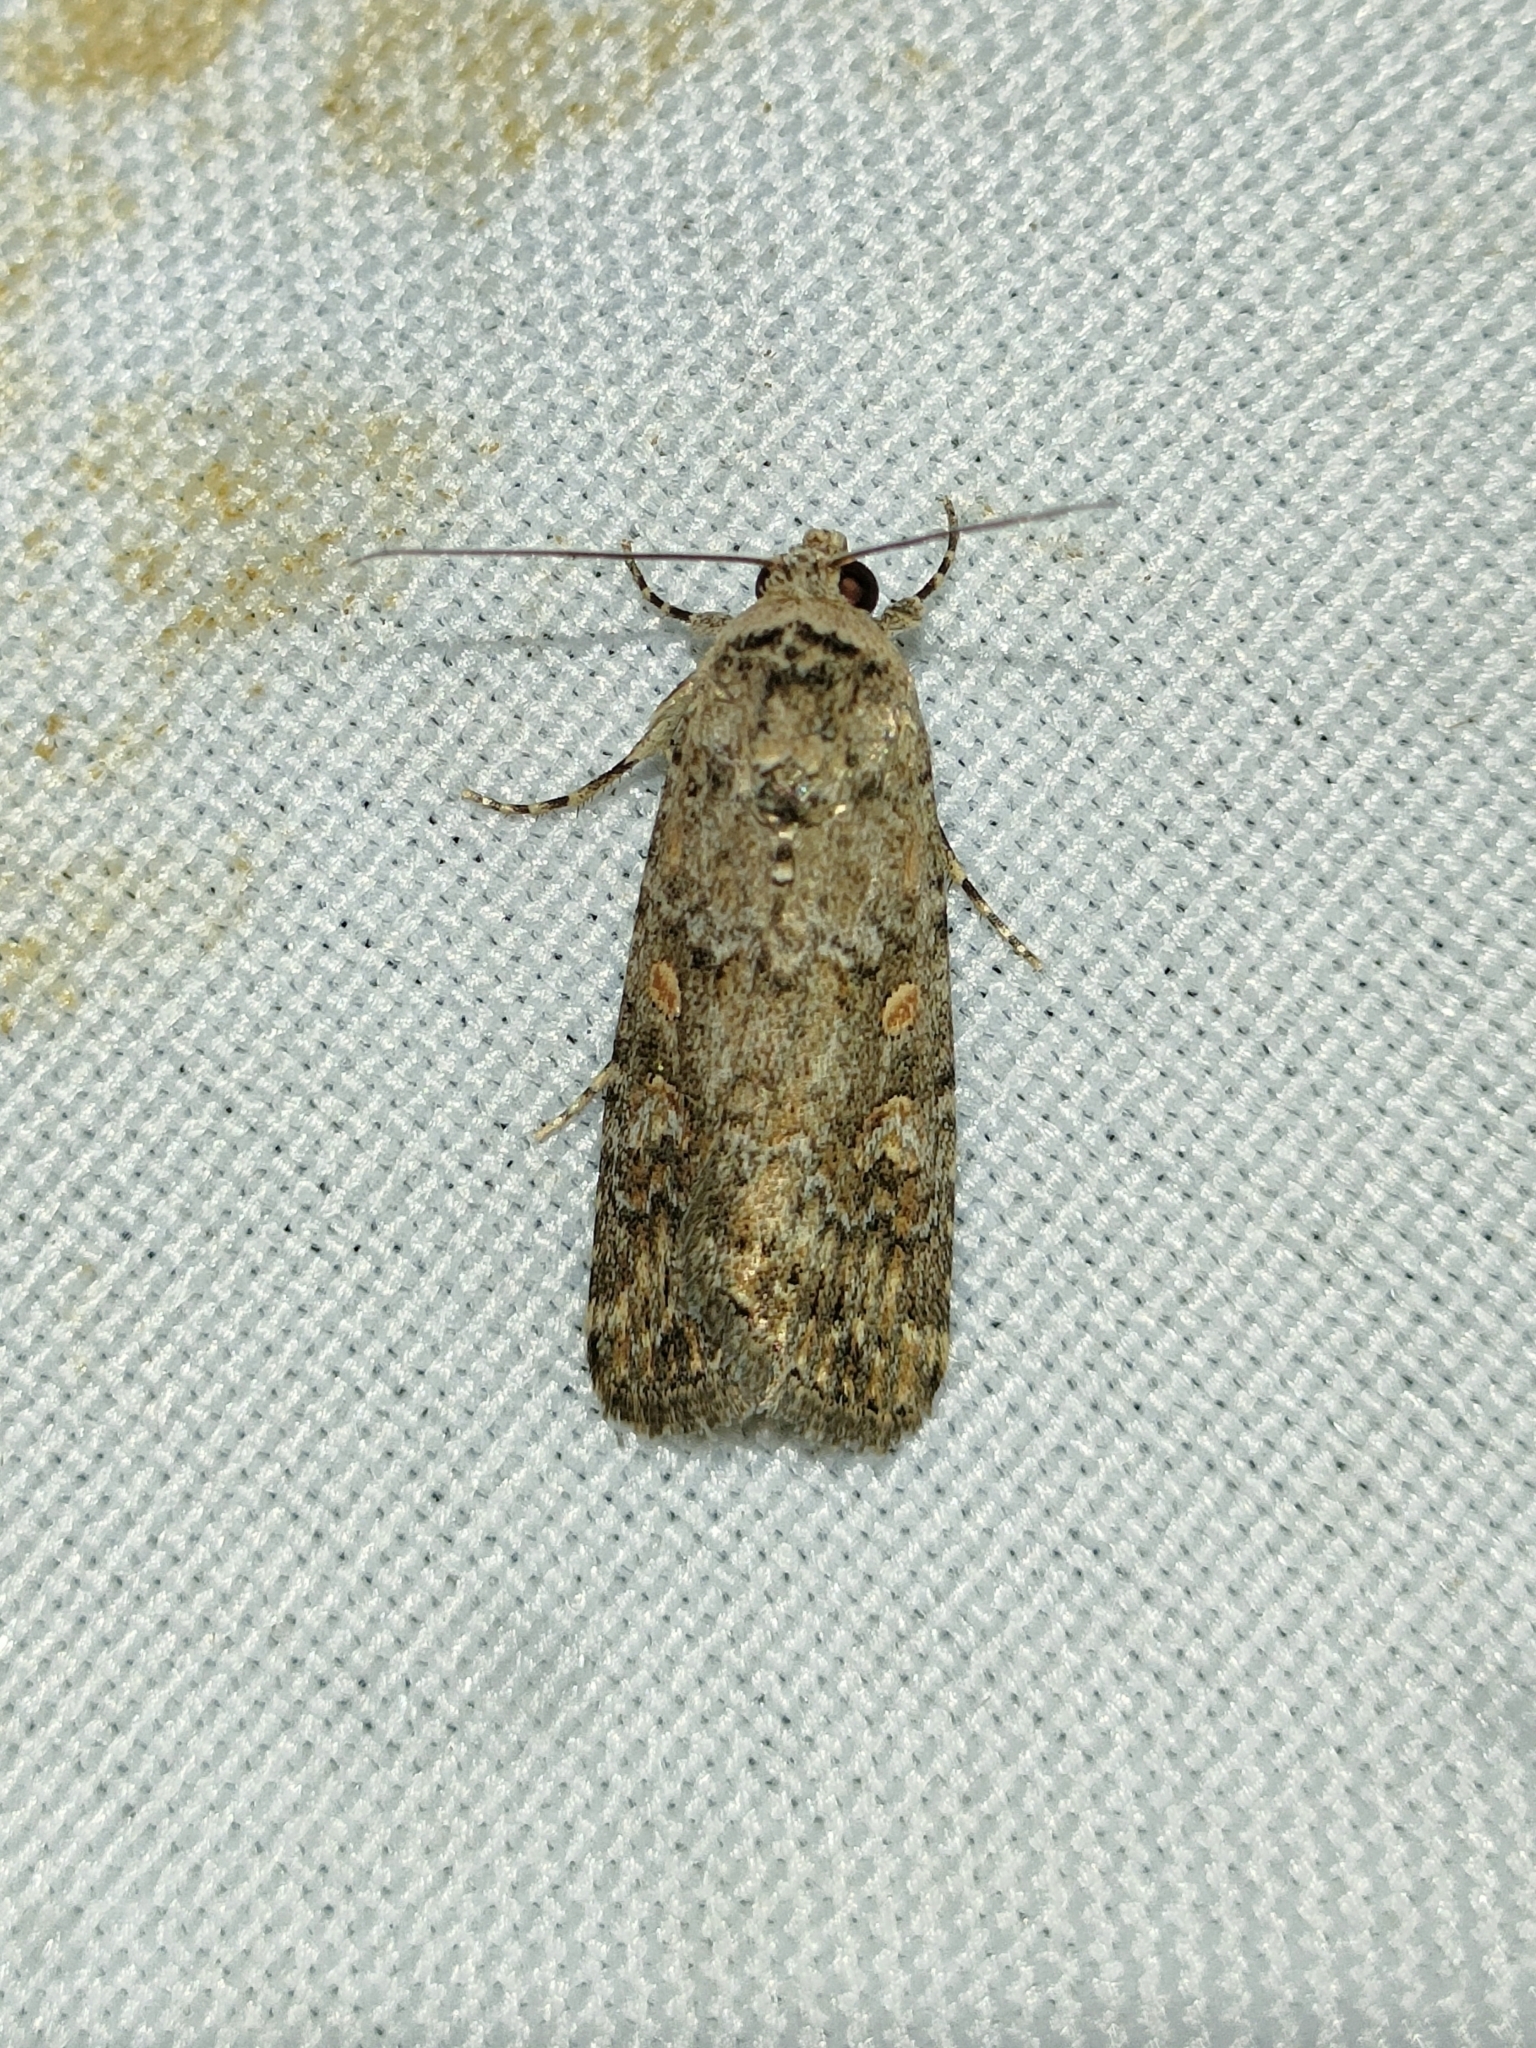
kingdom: Animalia
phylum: Arthropoda
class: Insecta
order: Lepidoptera
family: Noctuidae
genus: Spodoptera
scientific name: Spodoptera exigua
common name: Beet armyworm
